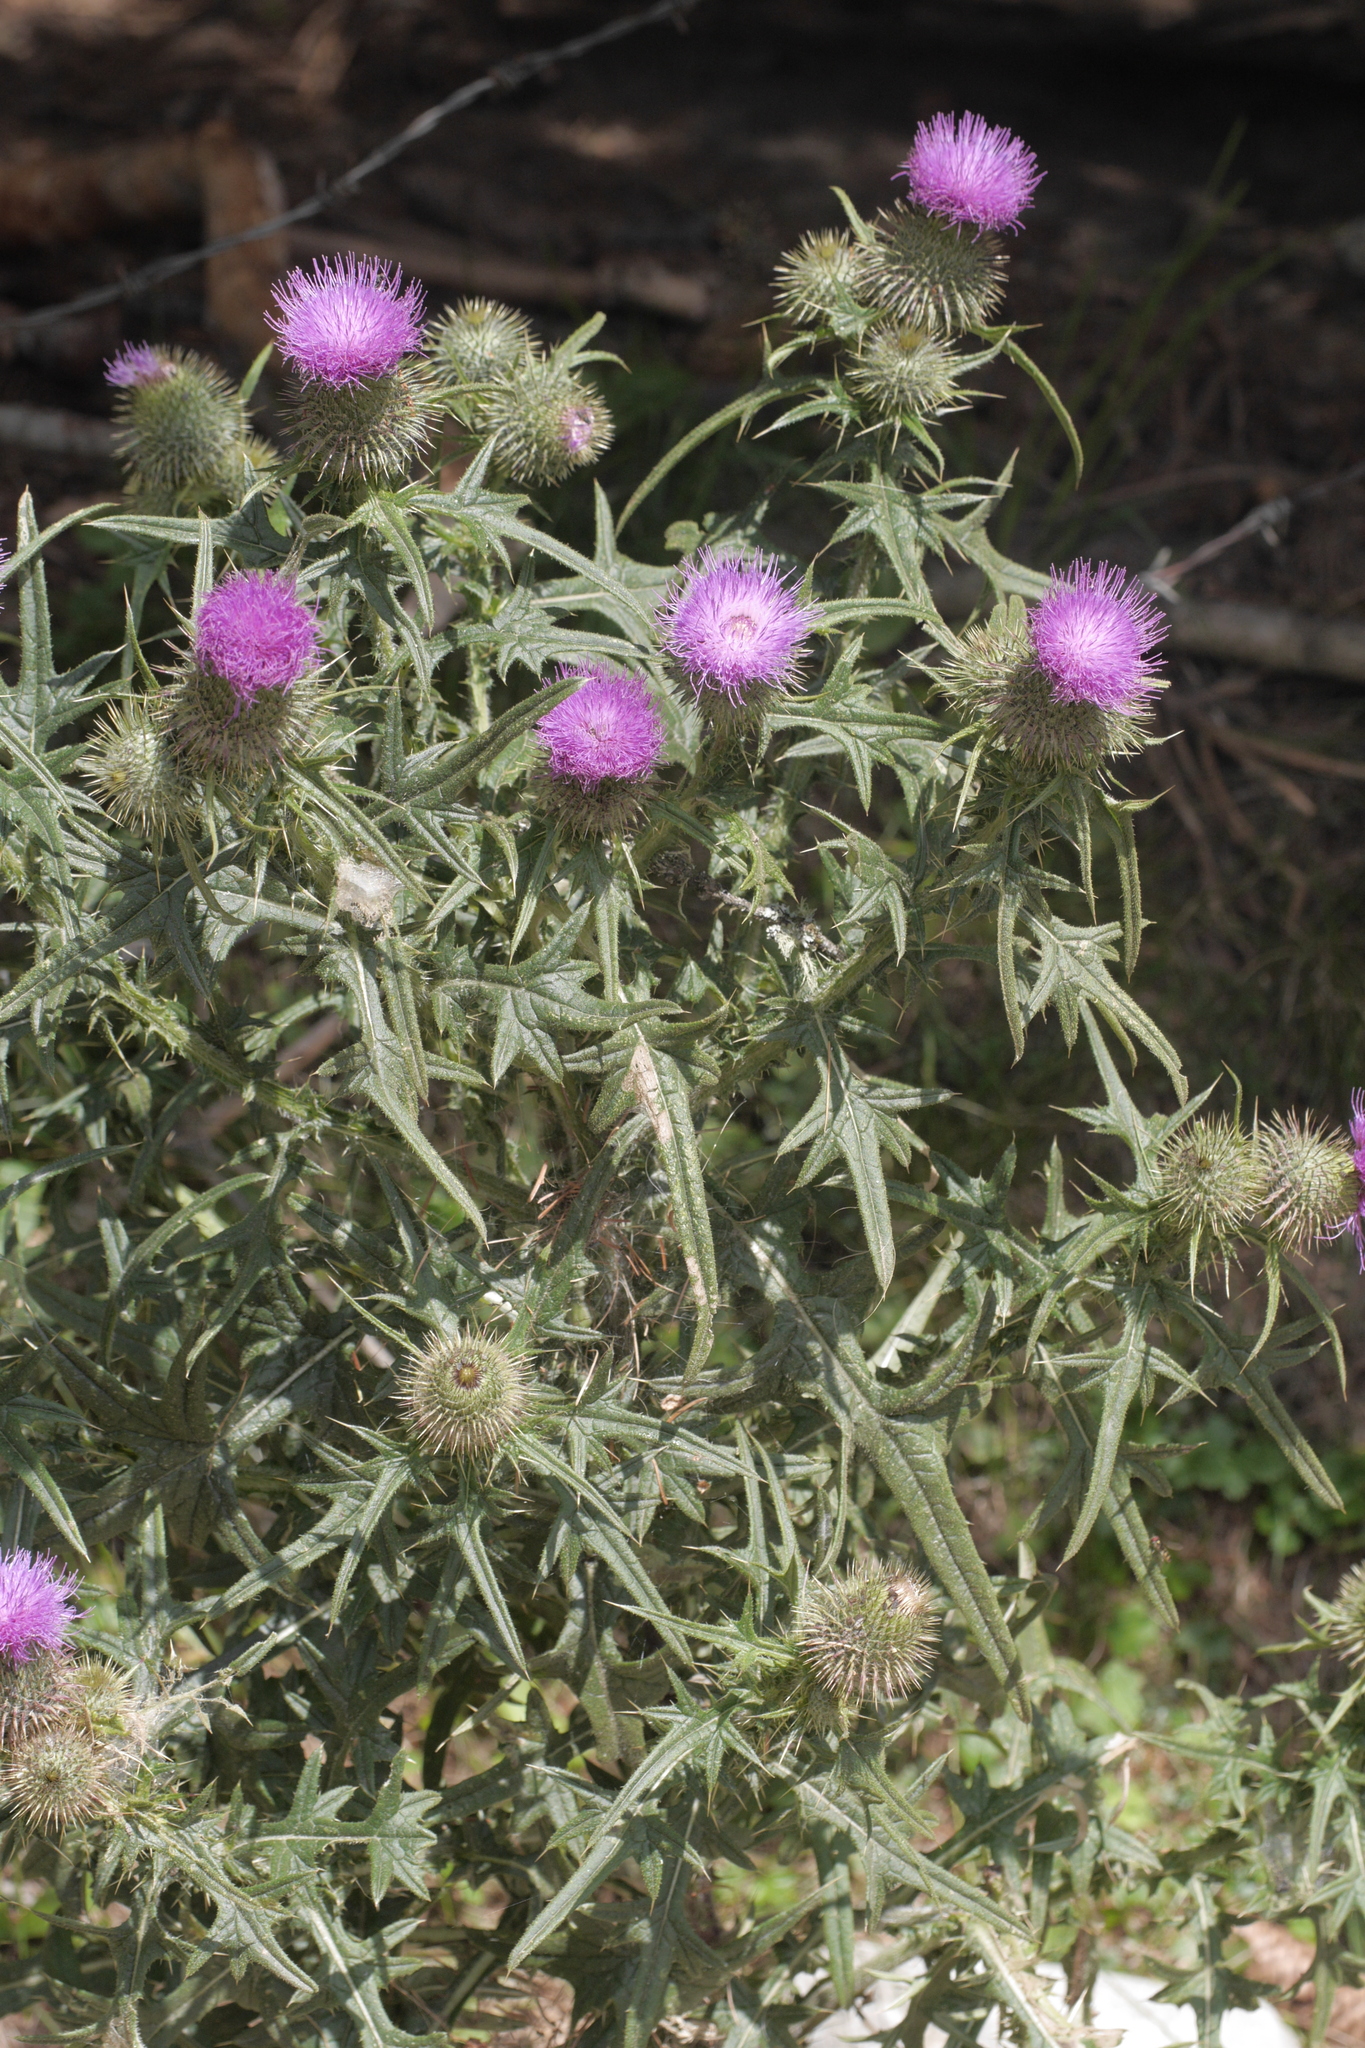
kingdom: Plantae
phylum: Tracheophyta
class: Magnoliopsida
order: Asterales
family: Asteraceae
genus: Cirsium
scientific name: Cirsium vulgare
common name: Bull thistle
